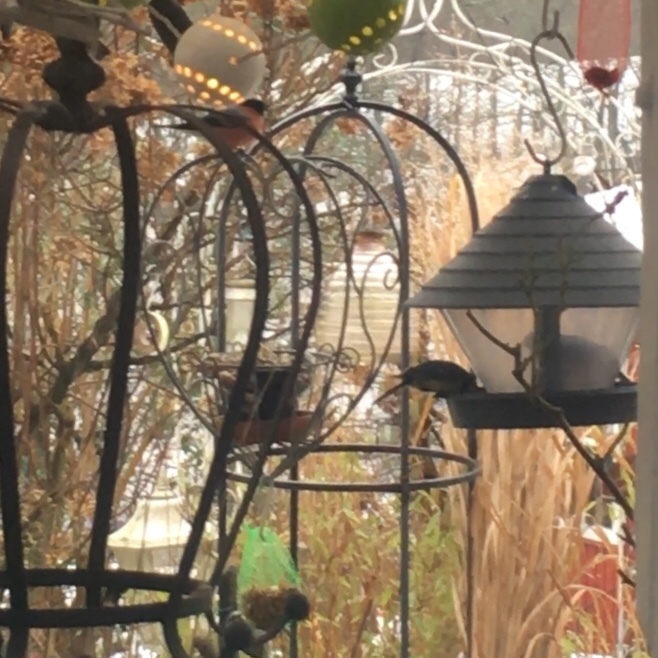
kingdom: Animalia
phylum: Chordata
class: Aves
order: Passeriformes
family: Fringillidae
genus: Pyrrhula
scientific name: Pyrrhula pyrrhula
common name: Eurasian bullfinch
